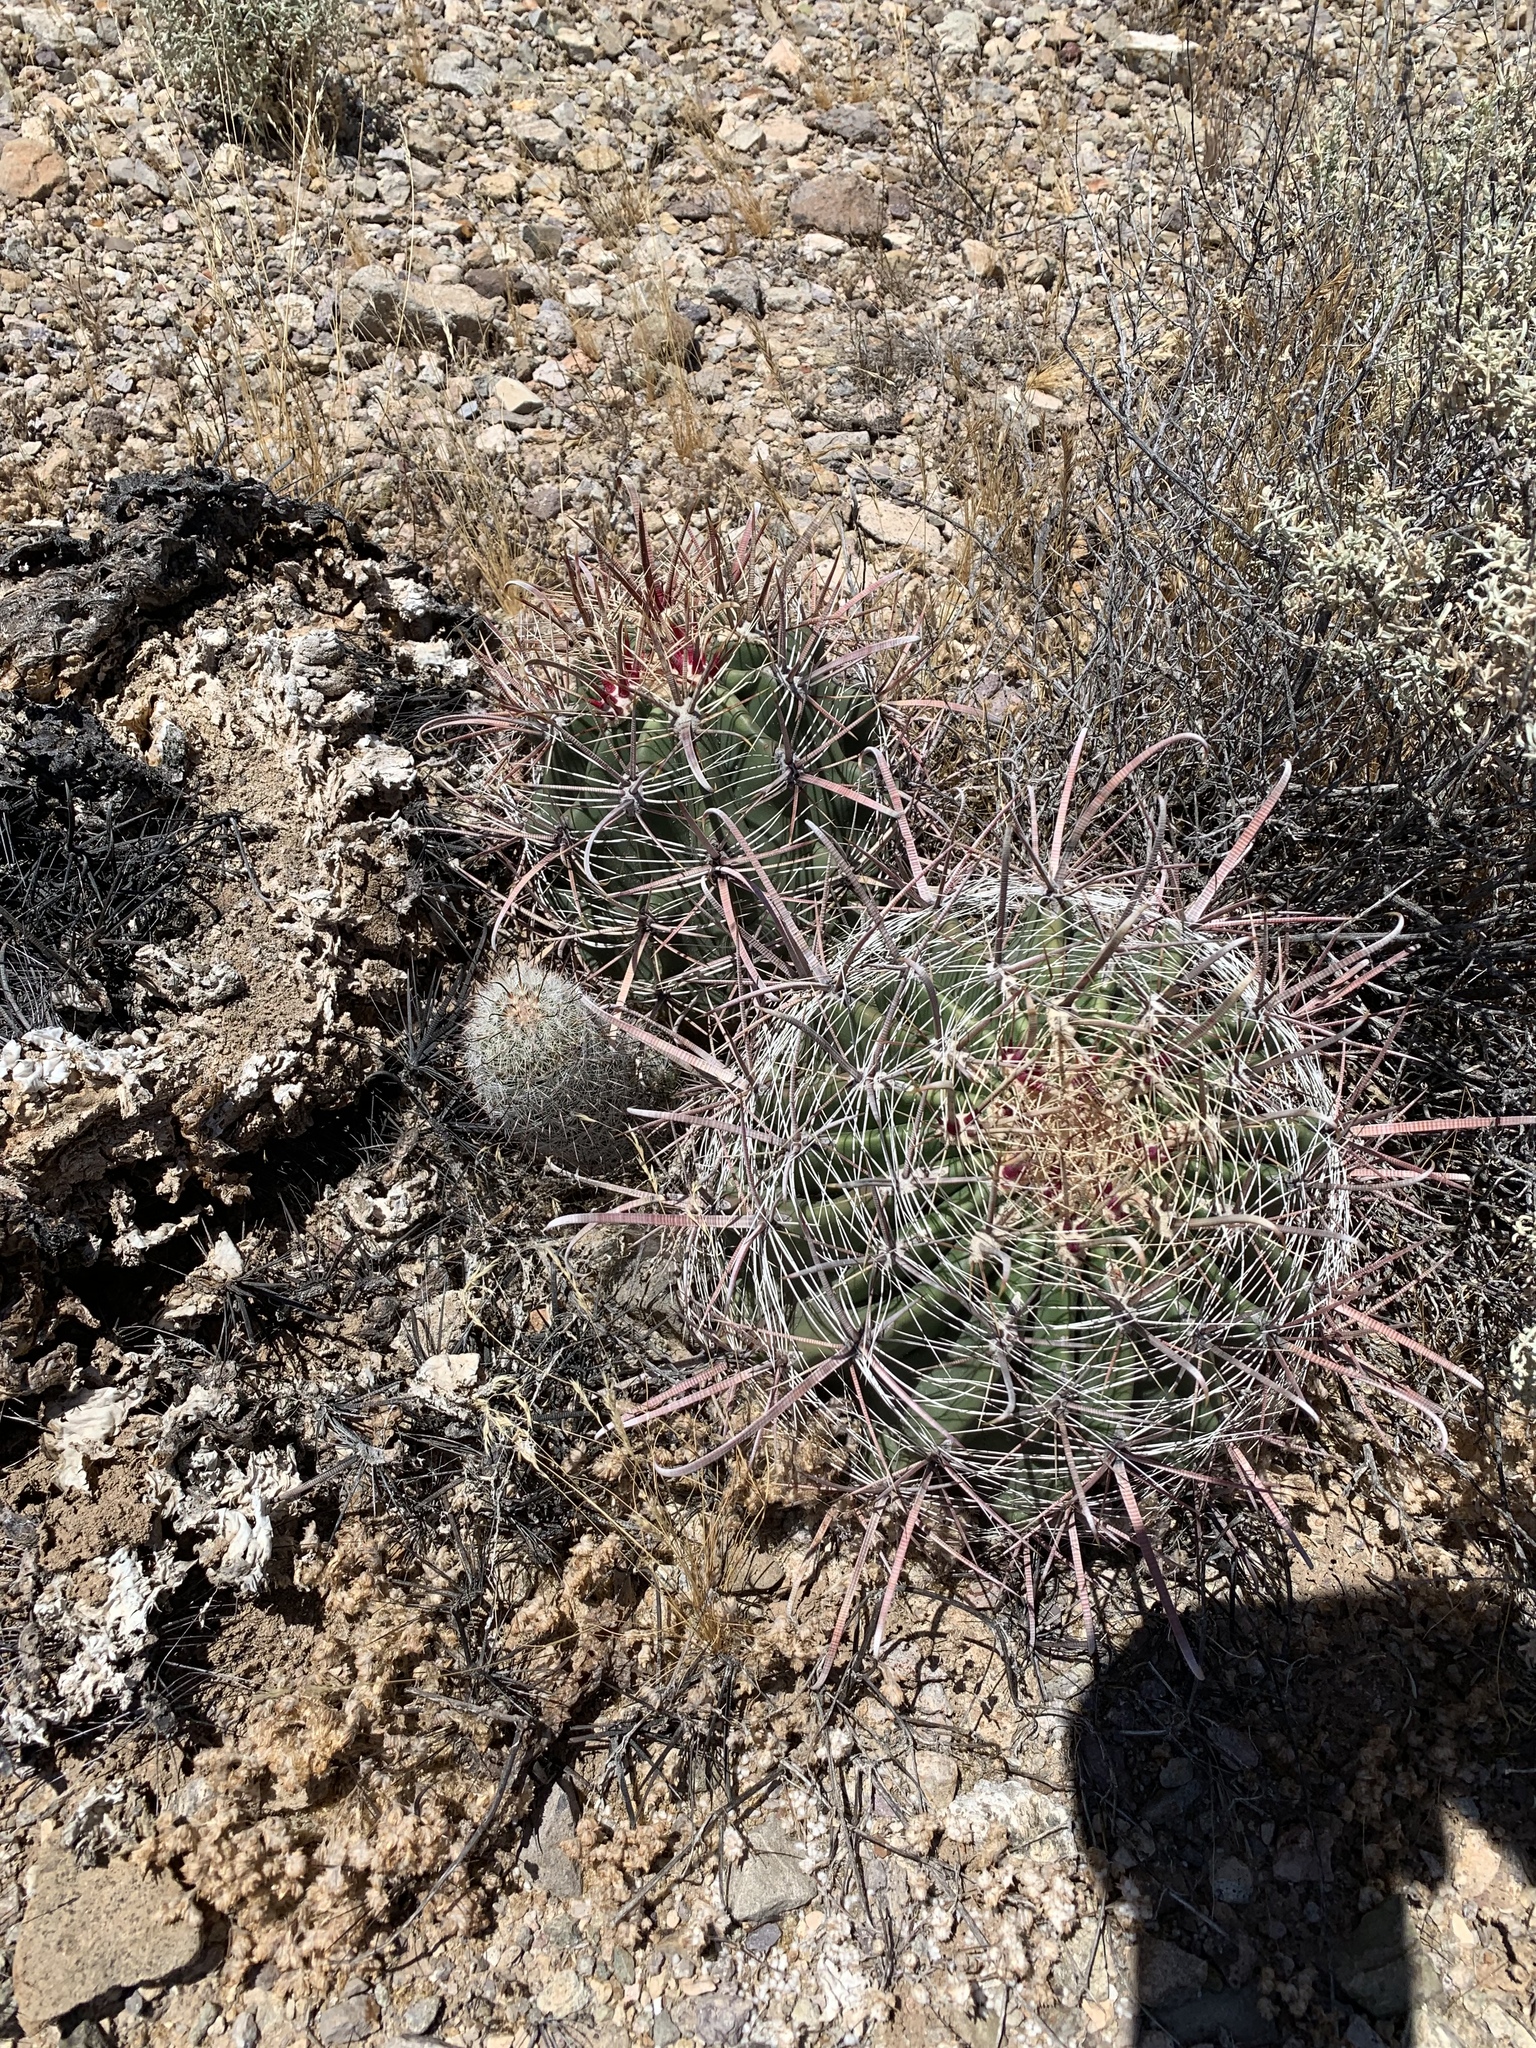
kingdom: Plantae
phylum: Tracheophyta
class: Magnoliopsida
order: Caryophyllales
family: Cactaceae
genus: Ferocactus
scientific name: Ferocactus wislizeni
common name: Candy barrel cactus
